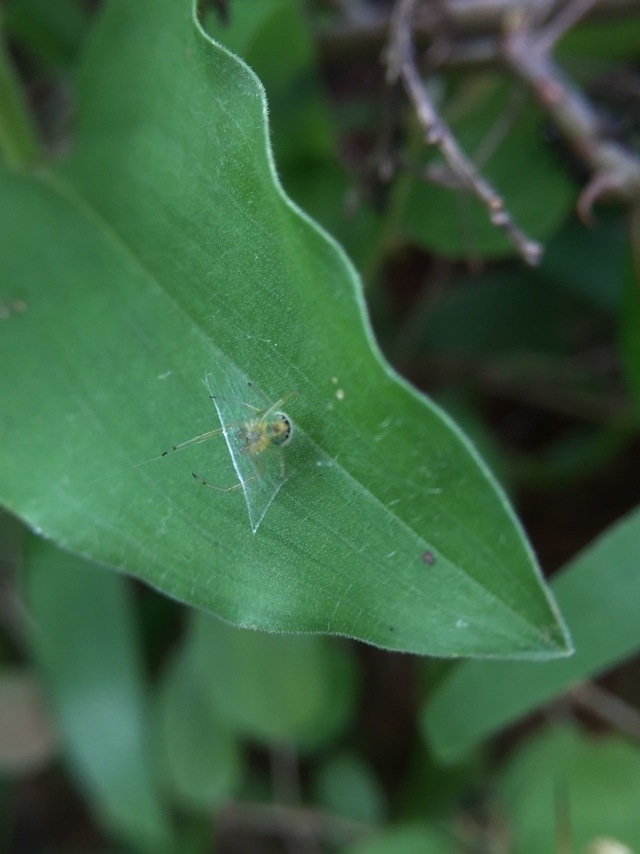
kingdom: Animalia
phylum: Arthropoda
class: Arachnida
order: Araneae
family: Araneidae
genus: Bijoaraneus
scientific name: Bijoaraneus mitificus
